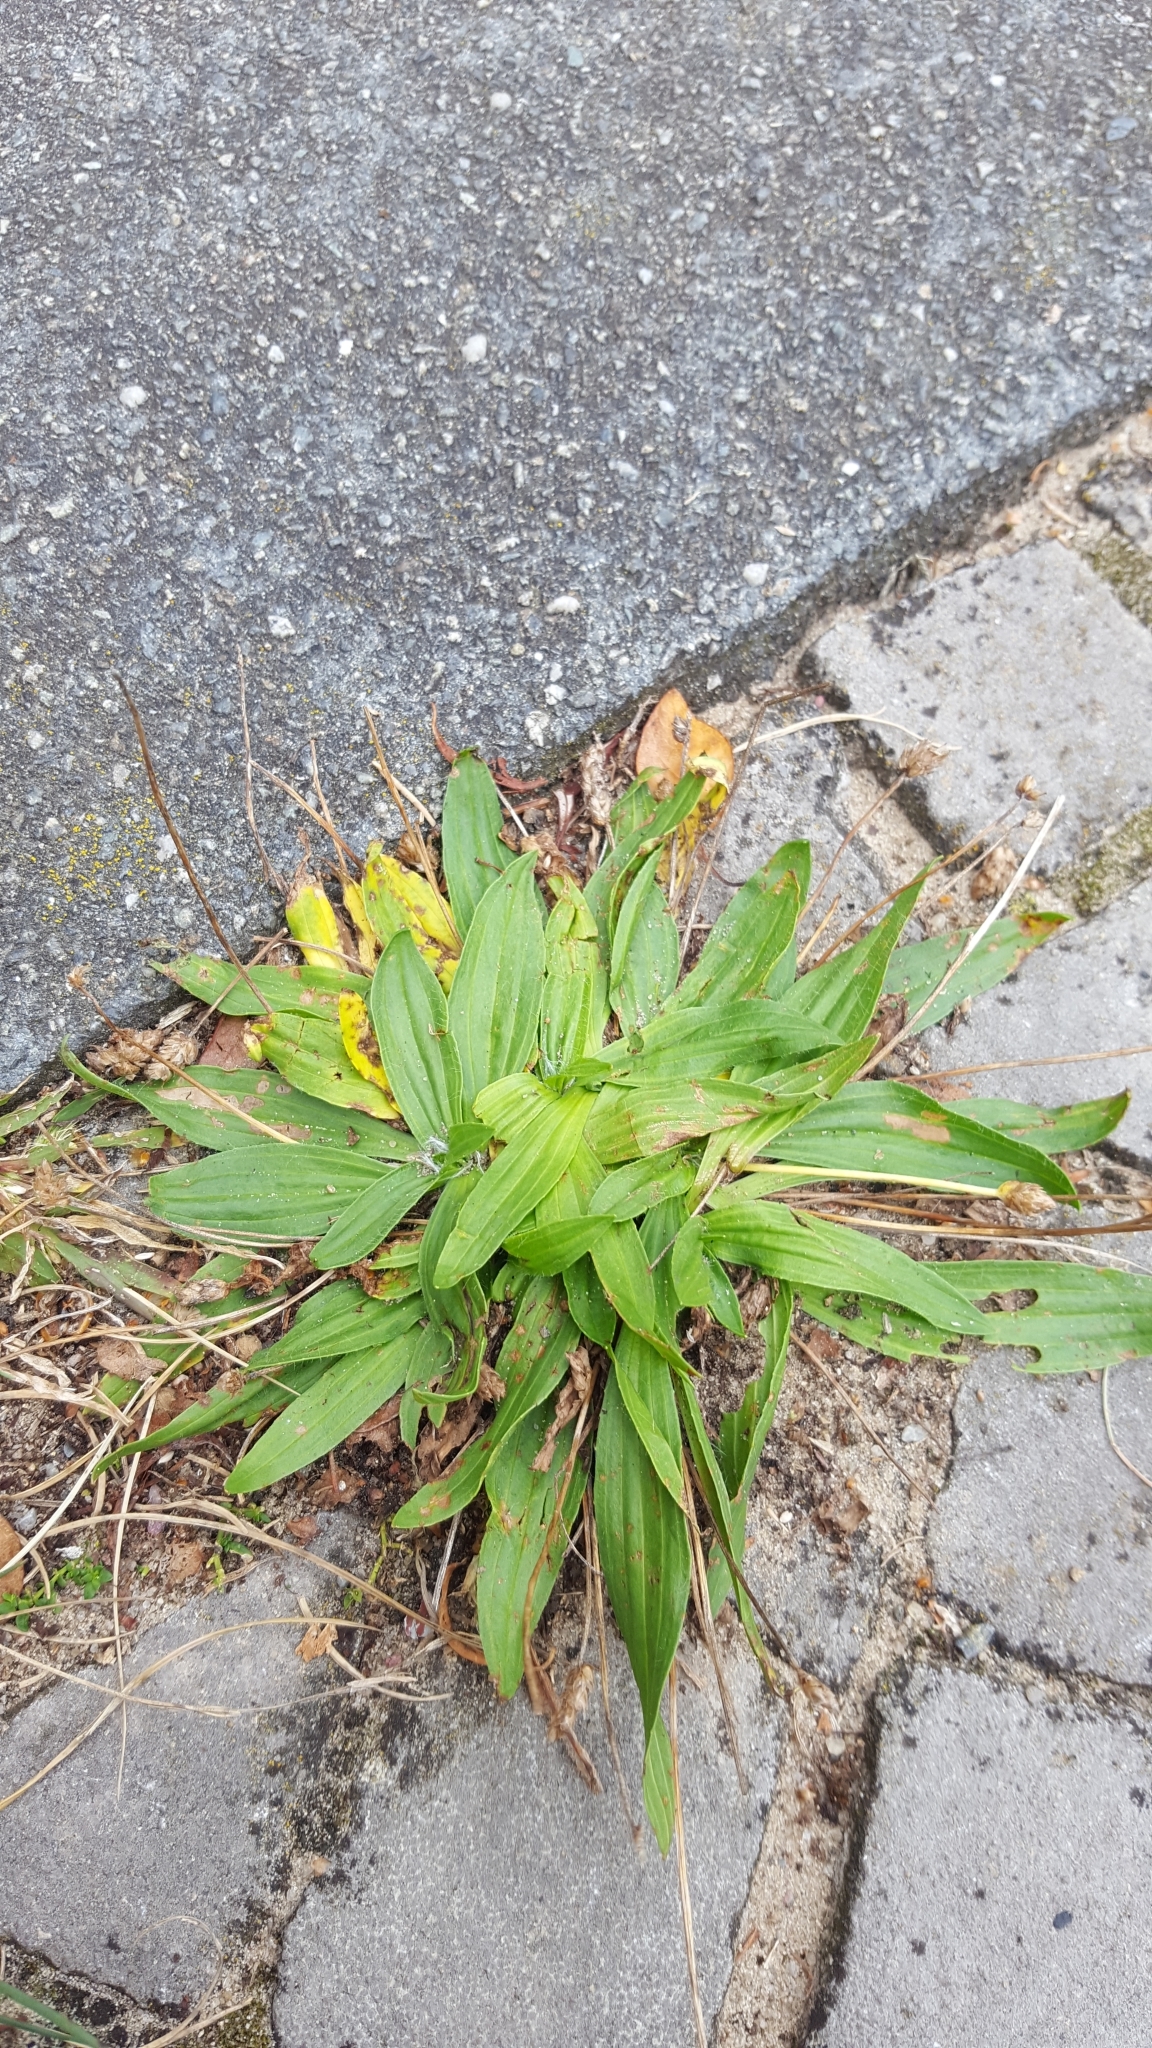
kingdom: Plantae
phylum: Tracheophyta
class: Magnoliopsida
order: Lamiales
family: Plantaginaceae
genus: Plantago
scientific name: Plantago lanceolata
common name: Ribwort plantain
